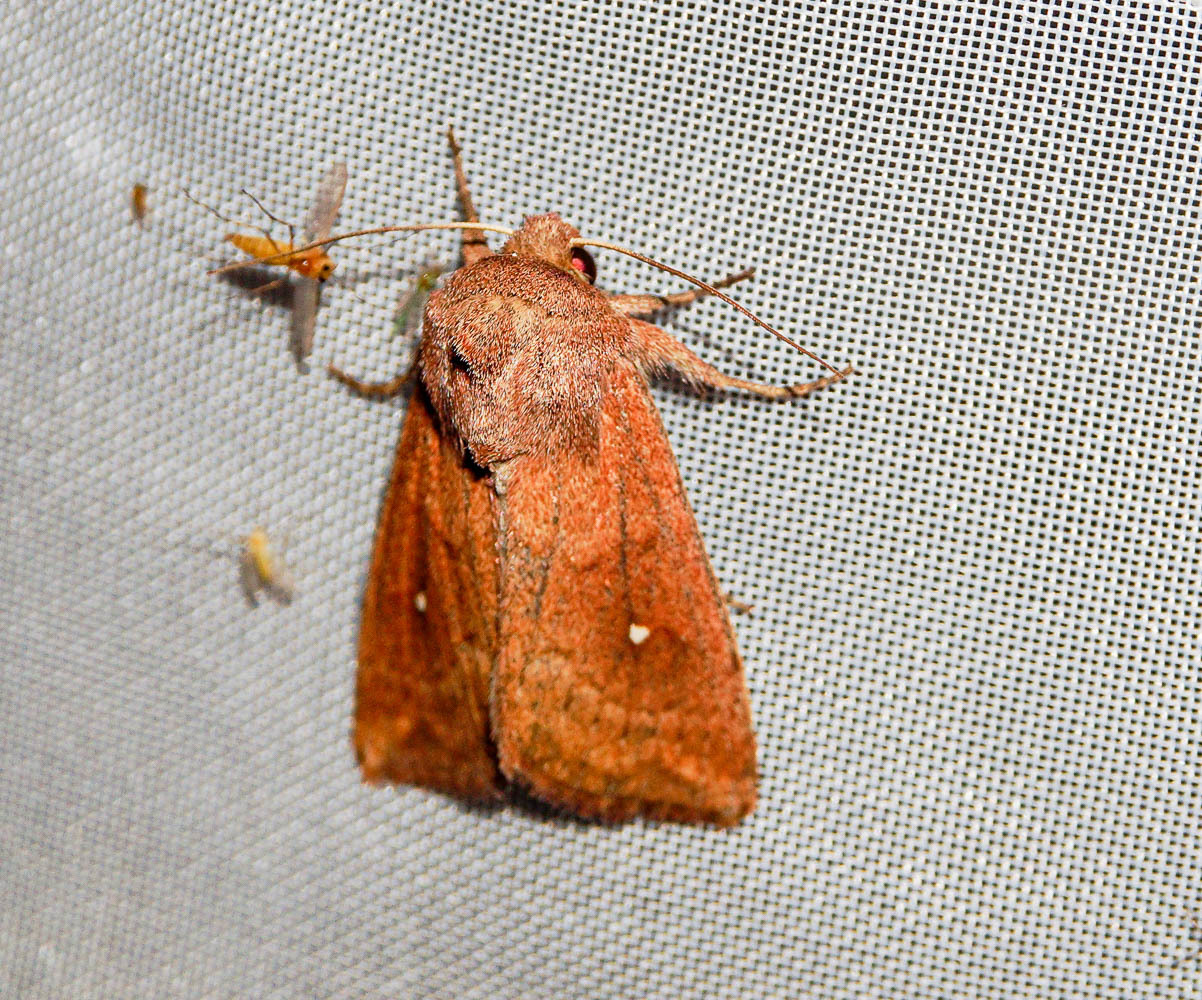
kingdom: Animalia
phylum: Arthropoda
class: Insecta
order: Lepidoptera
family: Noctuidae
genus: Mythimna
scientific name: Mythimna albipuncta
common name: White-point
